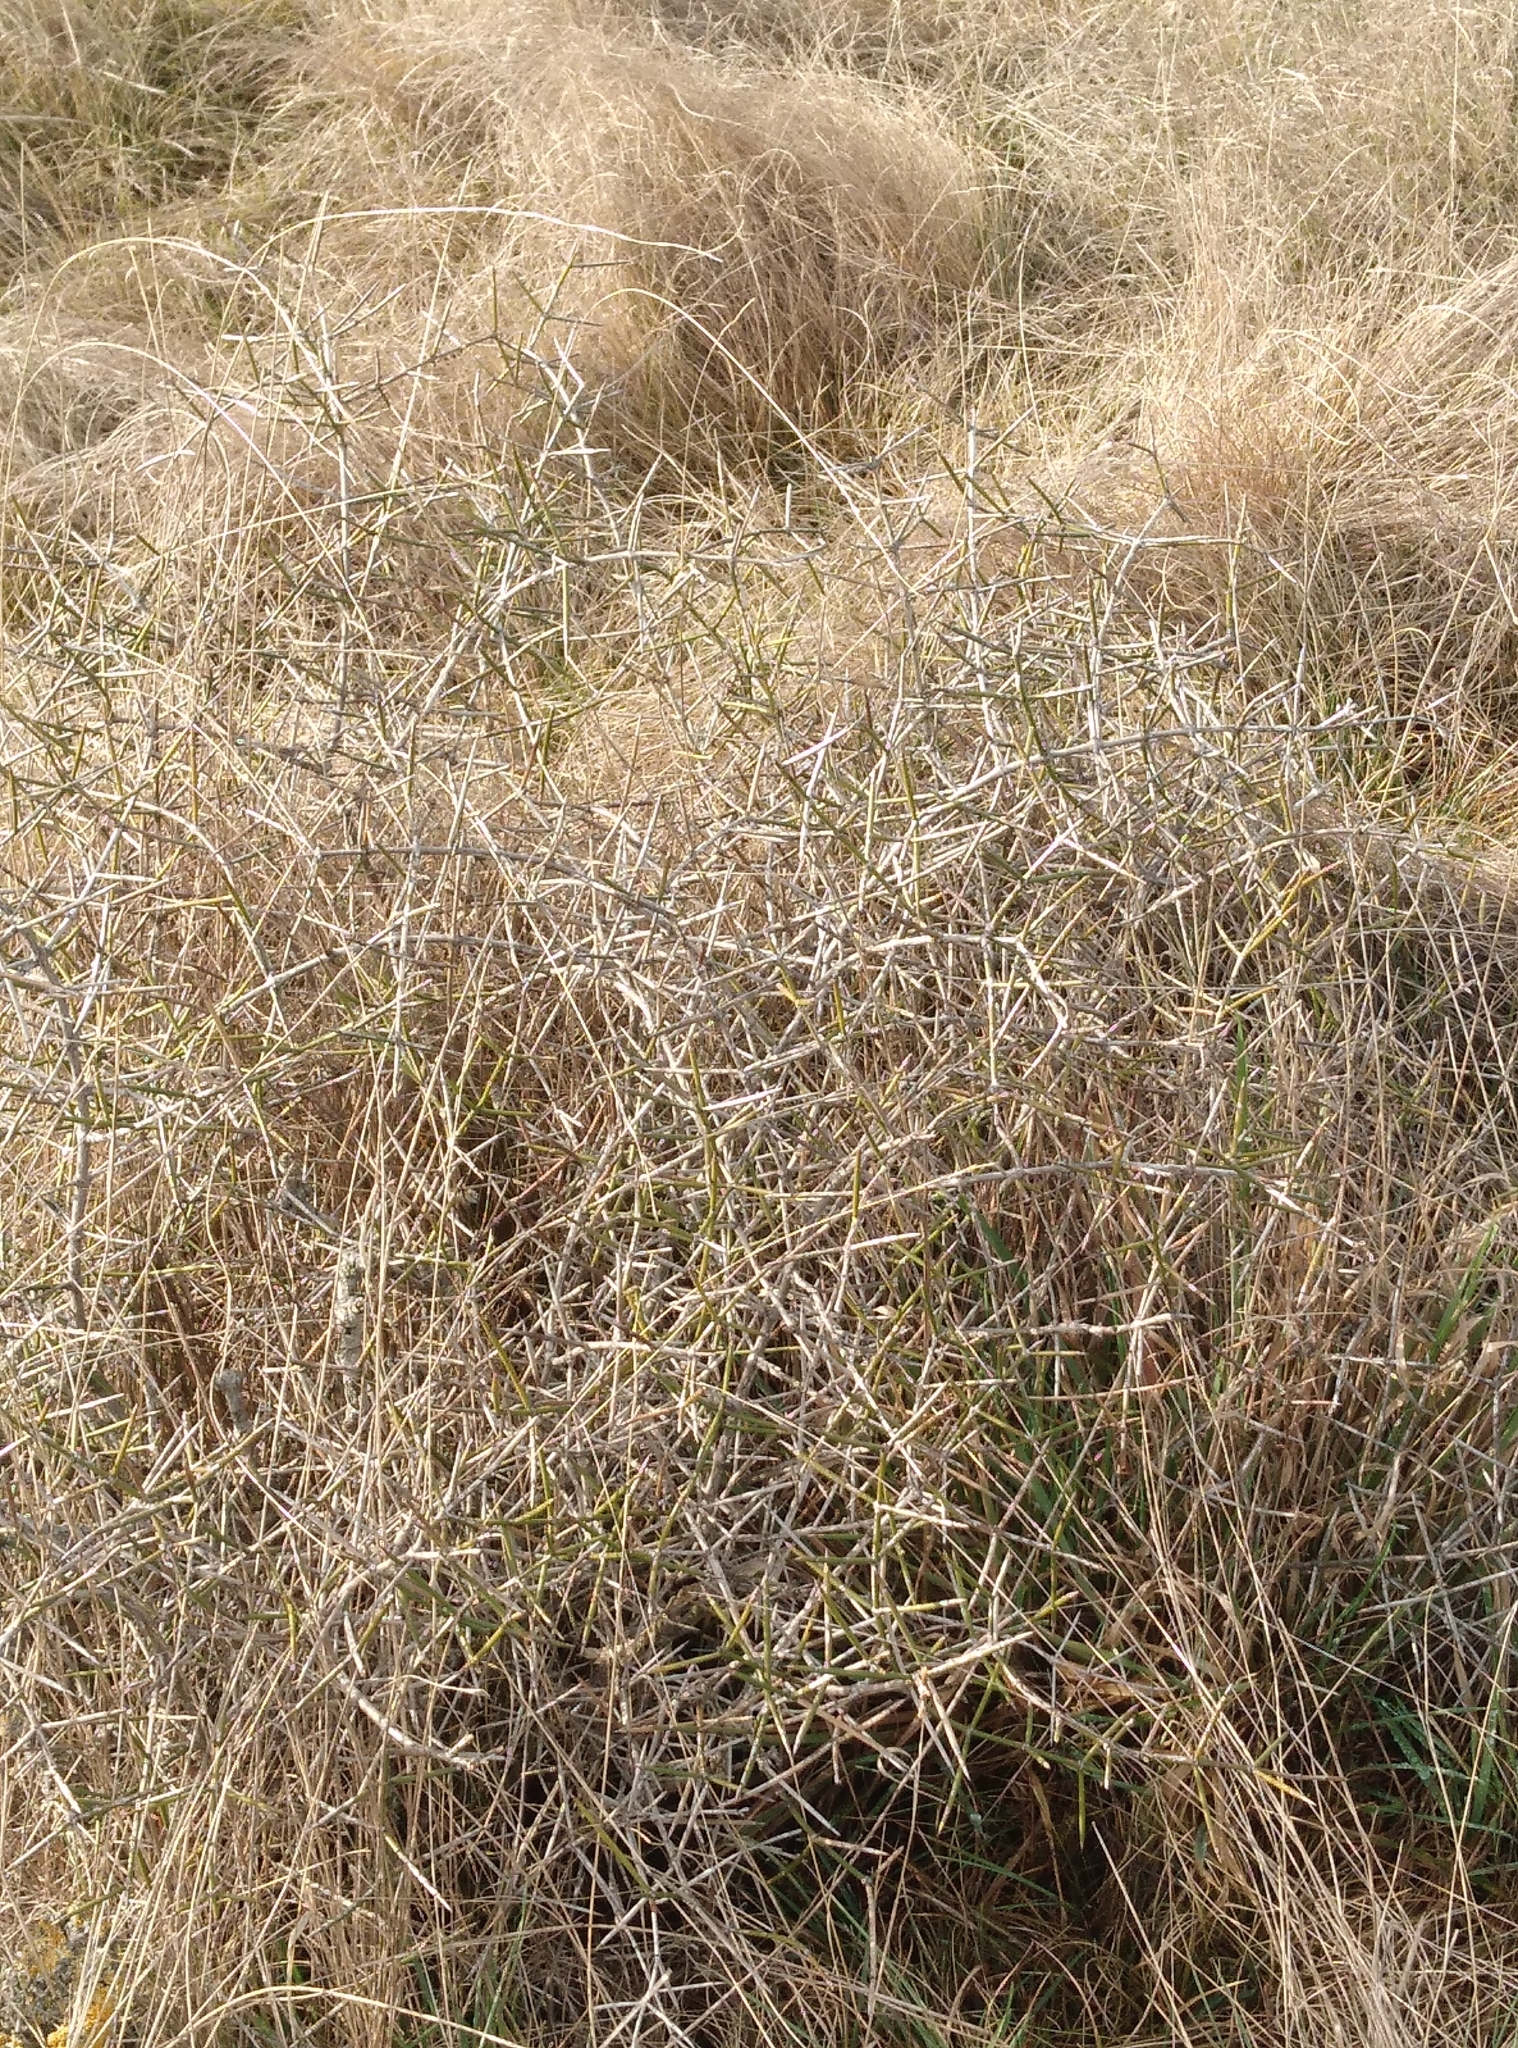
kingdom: Plantae
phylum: Tracheophyta
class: Magnoliopsida
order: Rosales
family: Rhamnaceae
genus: Discaria
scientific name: Discaria toumatou
